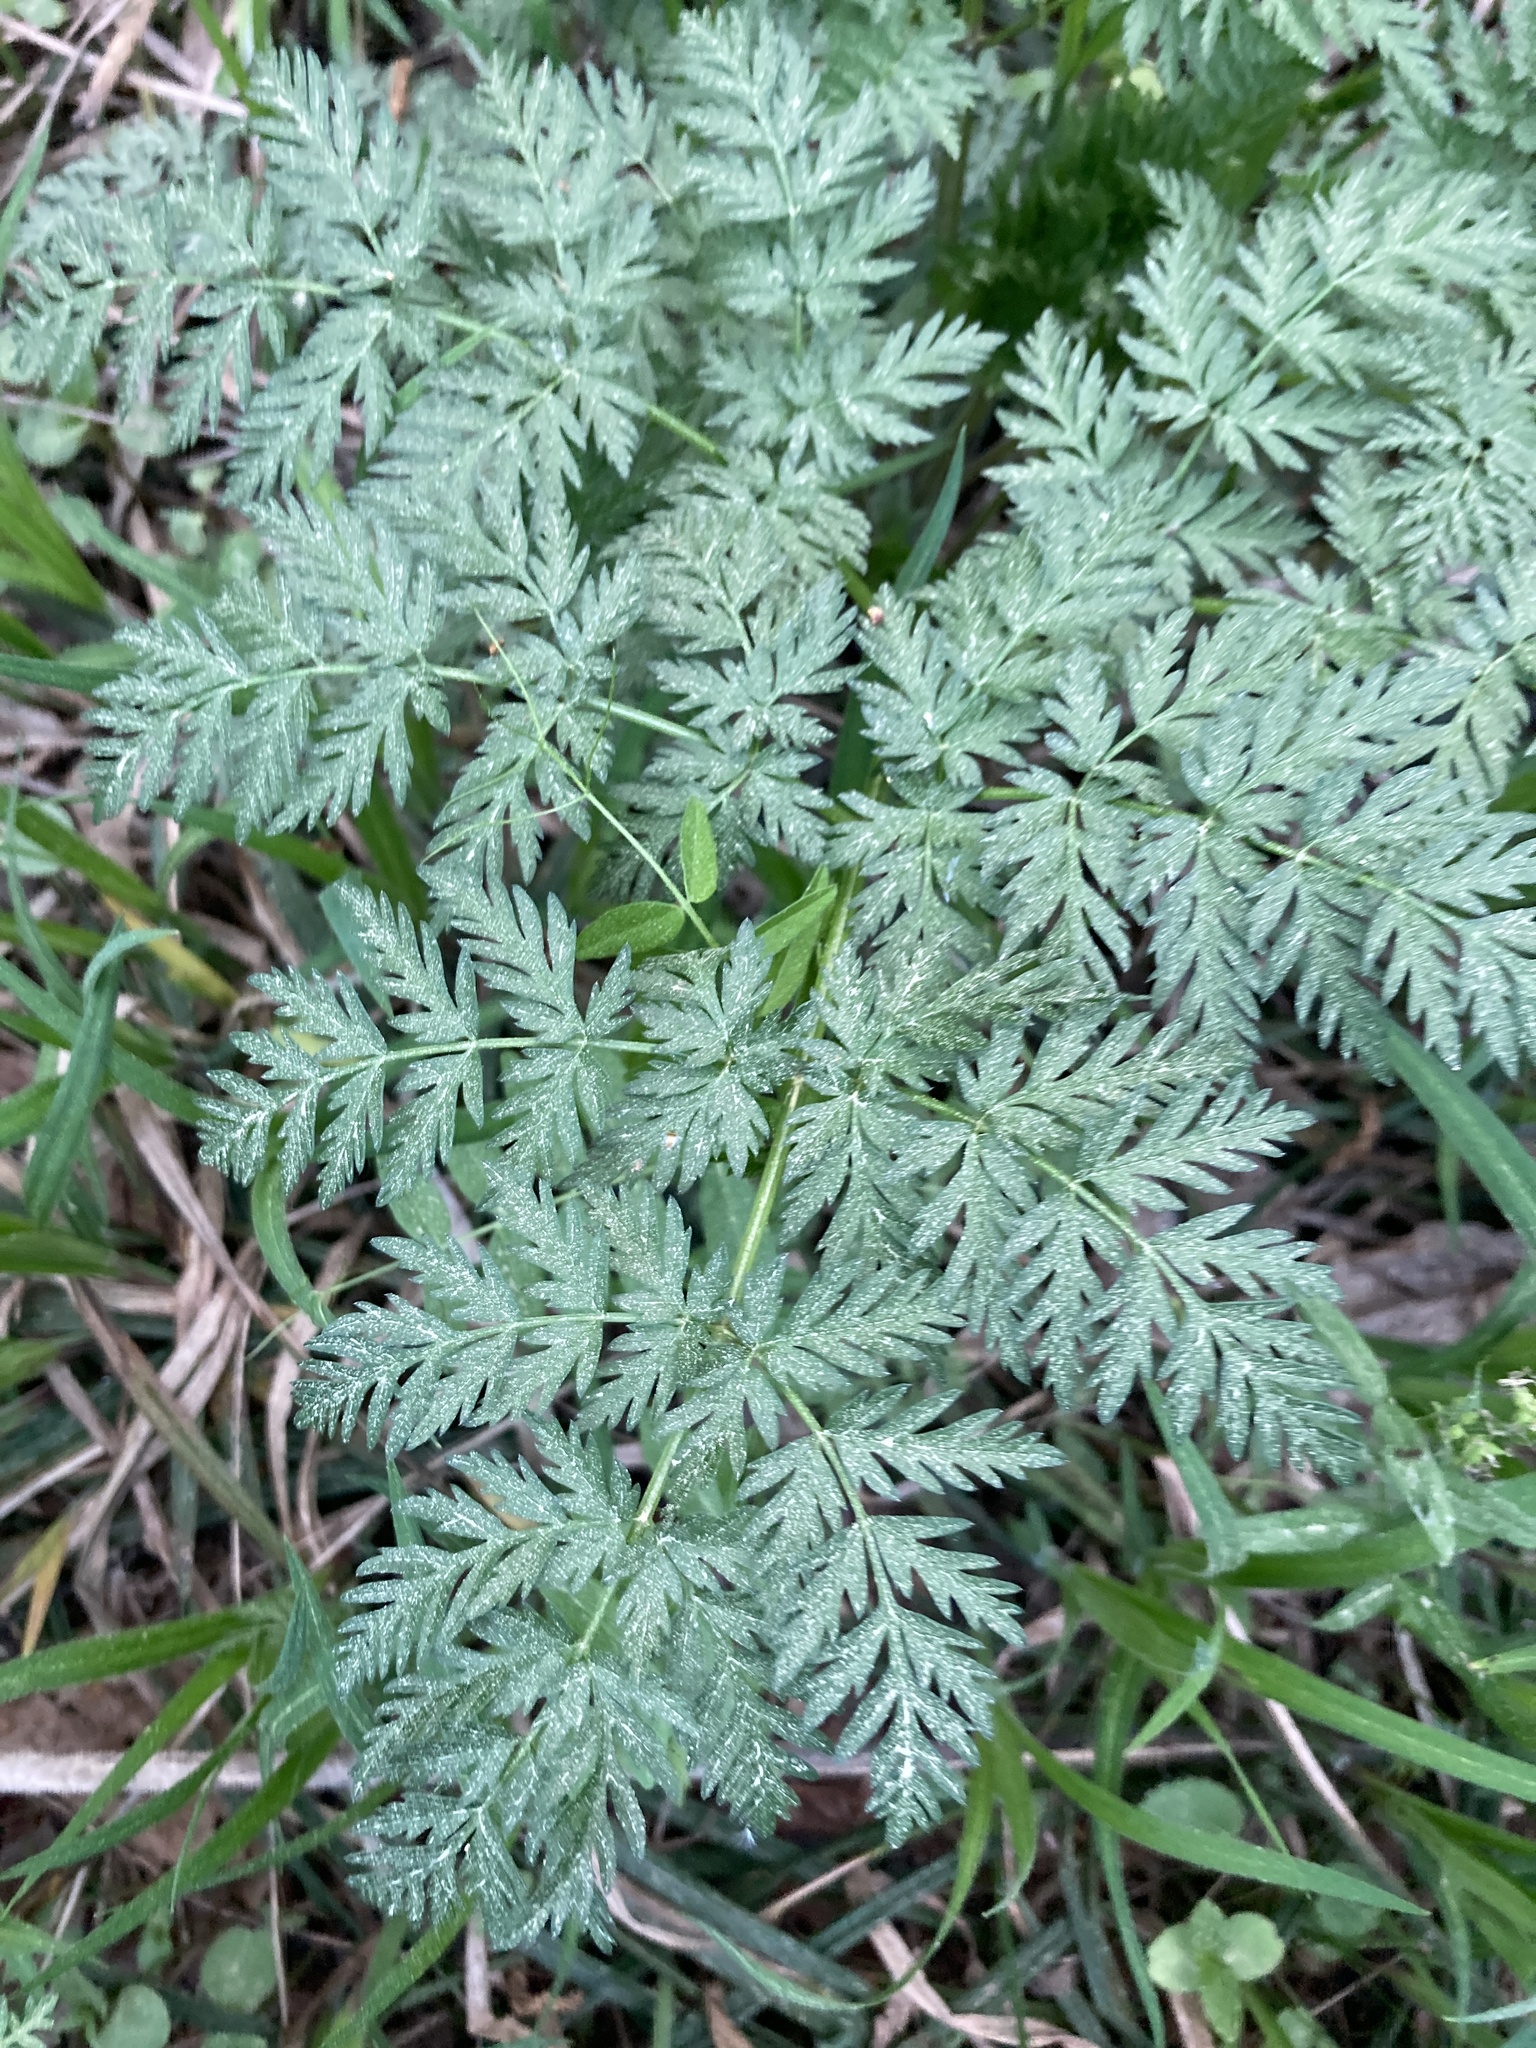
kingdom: Plantae
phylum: Tracheophyta
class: Magnoliopsida
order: Apiales
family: Apiaceae
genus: Anthriscus
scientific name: Anthriscus sylvestris
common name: Cow parsley
